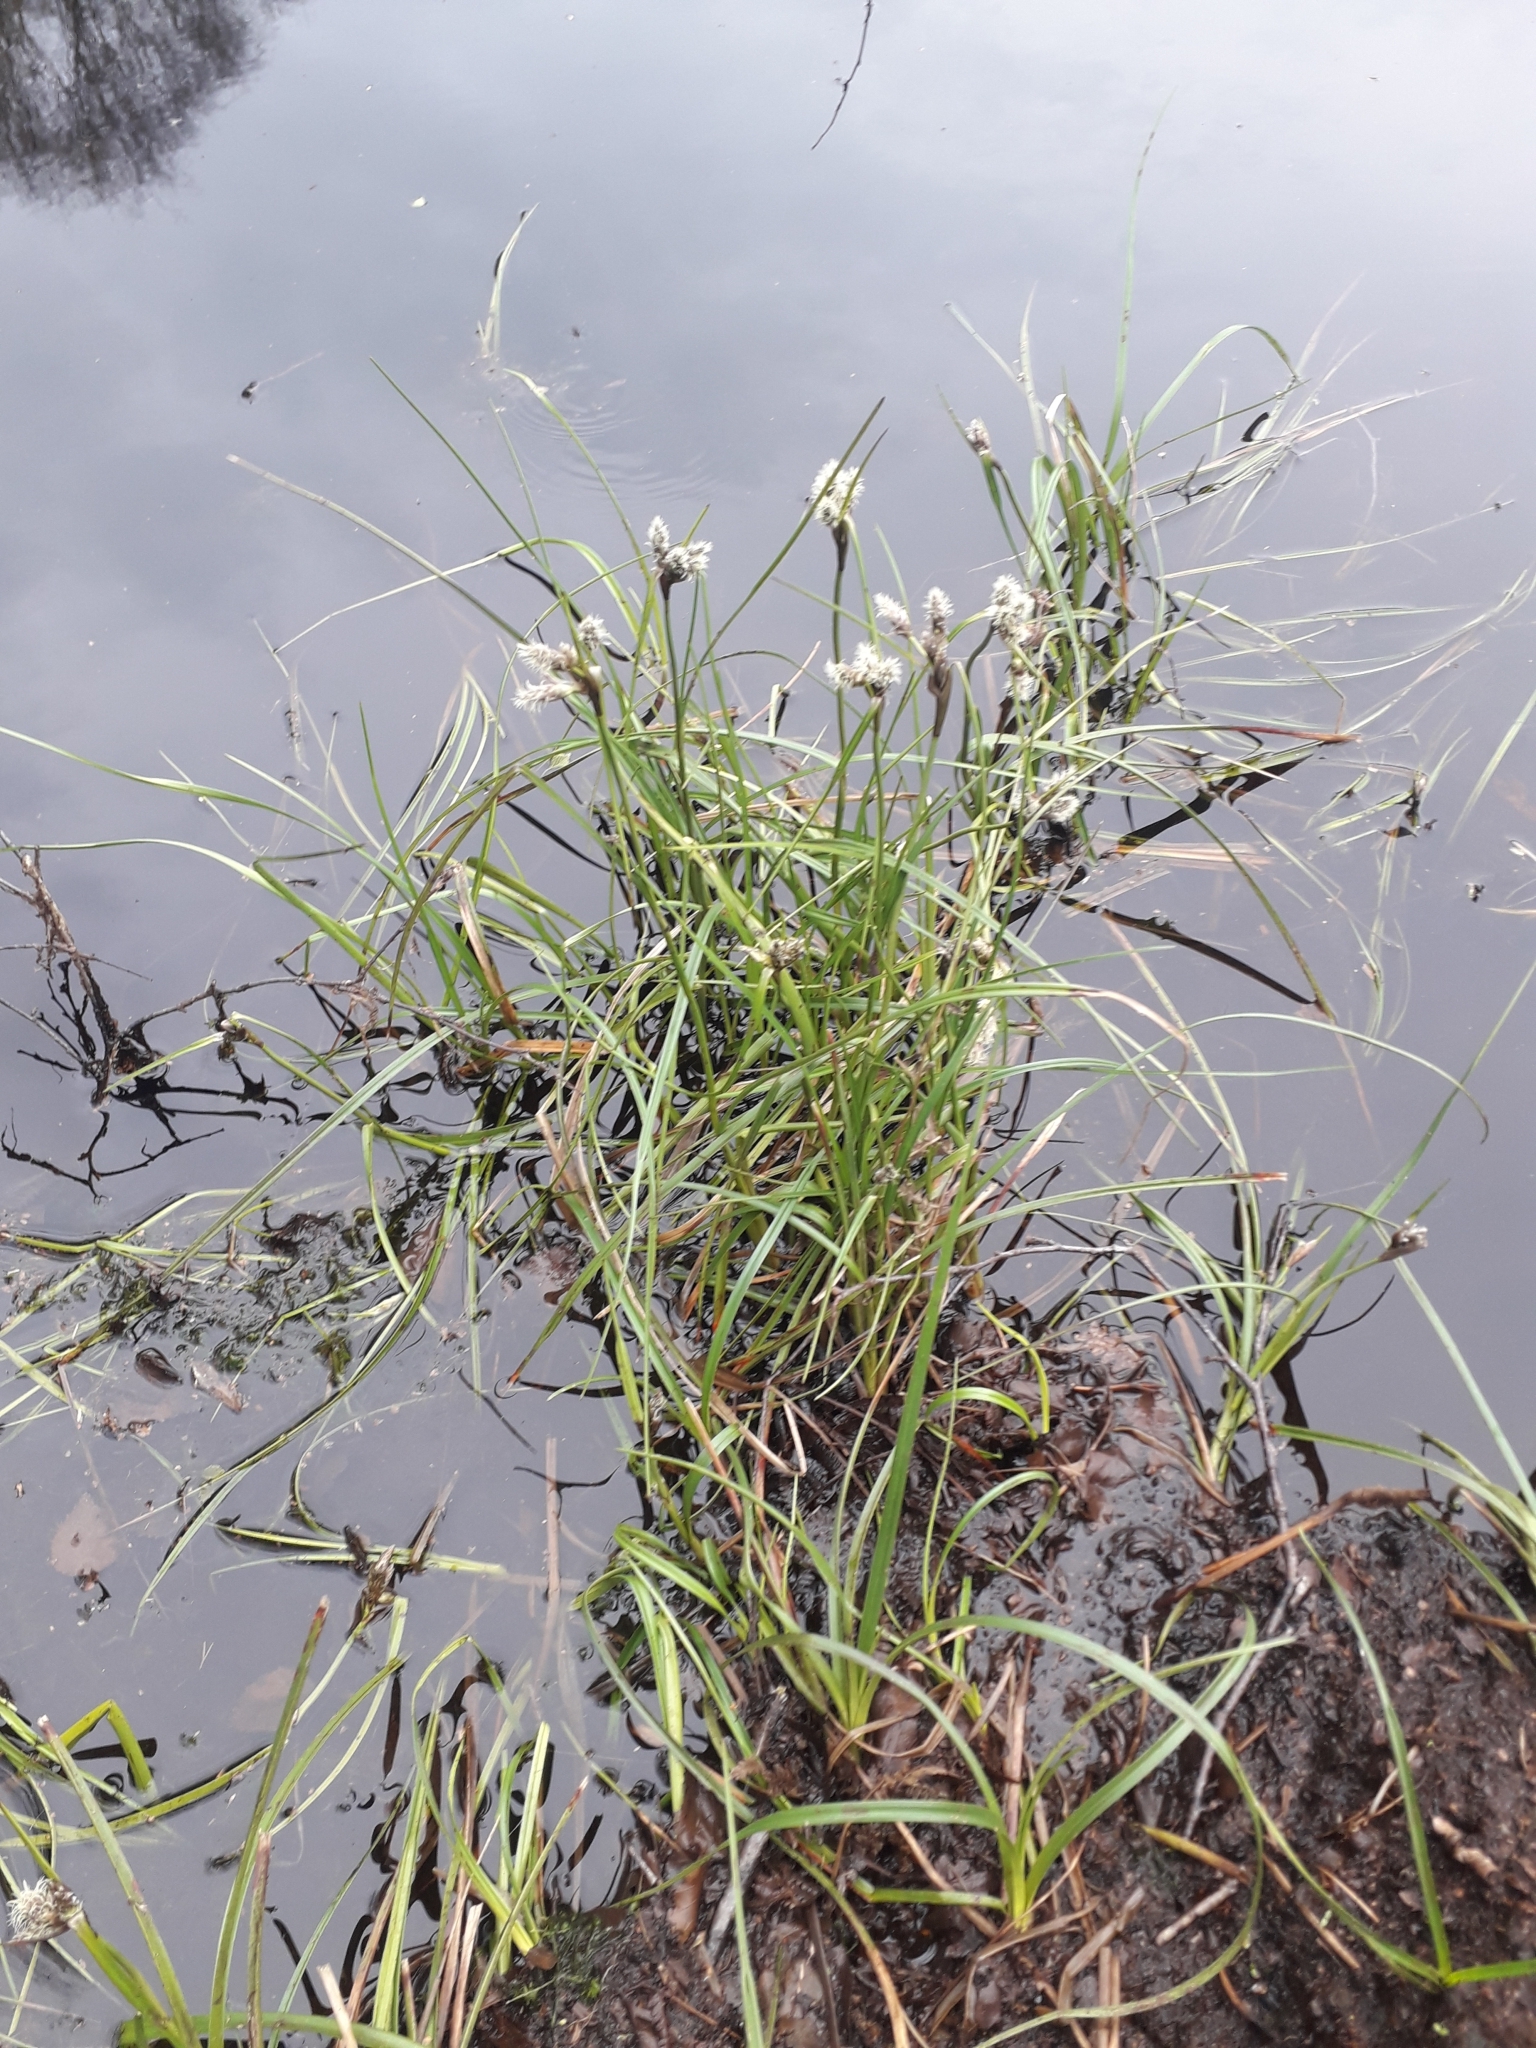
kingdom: Plantae
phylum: Tracheophyta
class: Liliopsida
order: Poales
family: Cyperaceae
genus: Eriophorum
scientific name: Eriophorum angustifolium
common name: Common cottongrass
